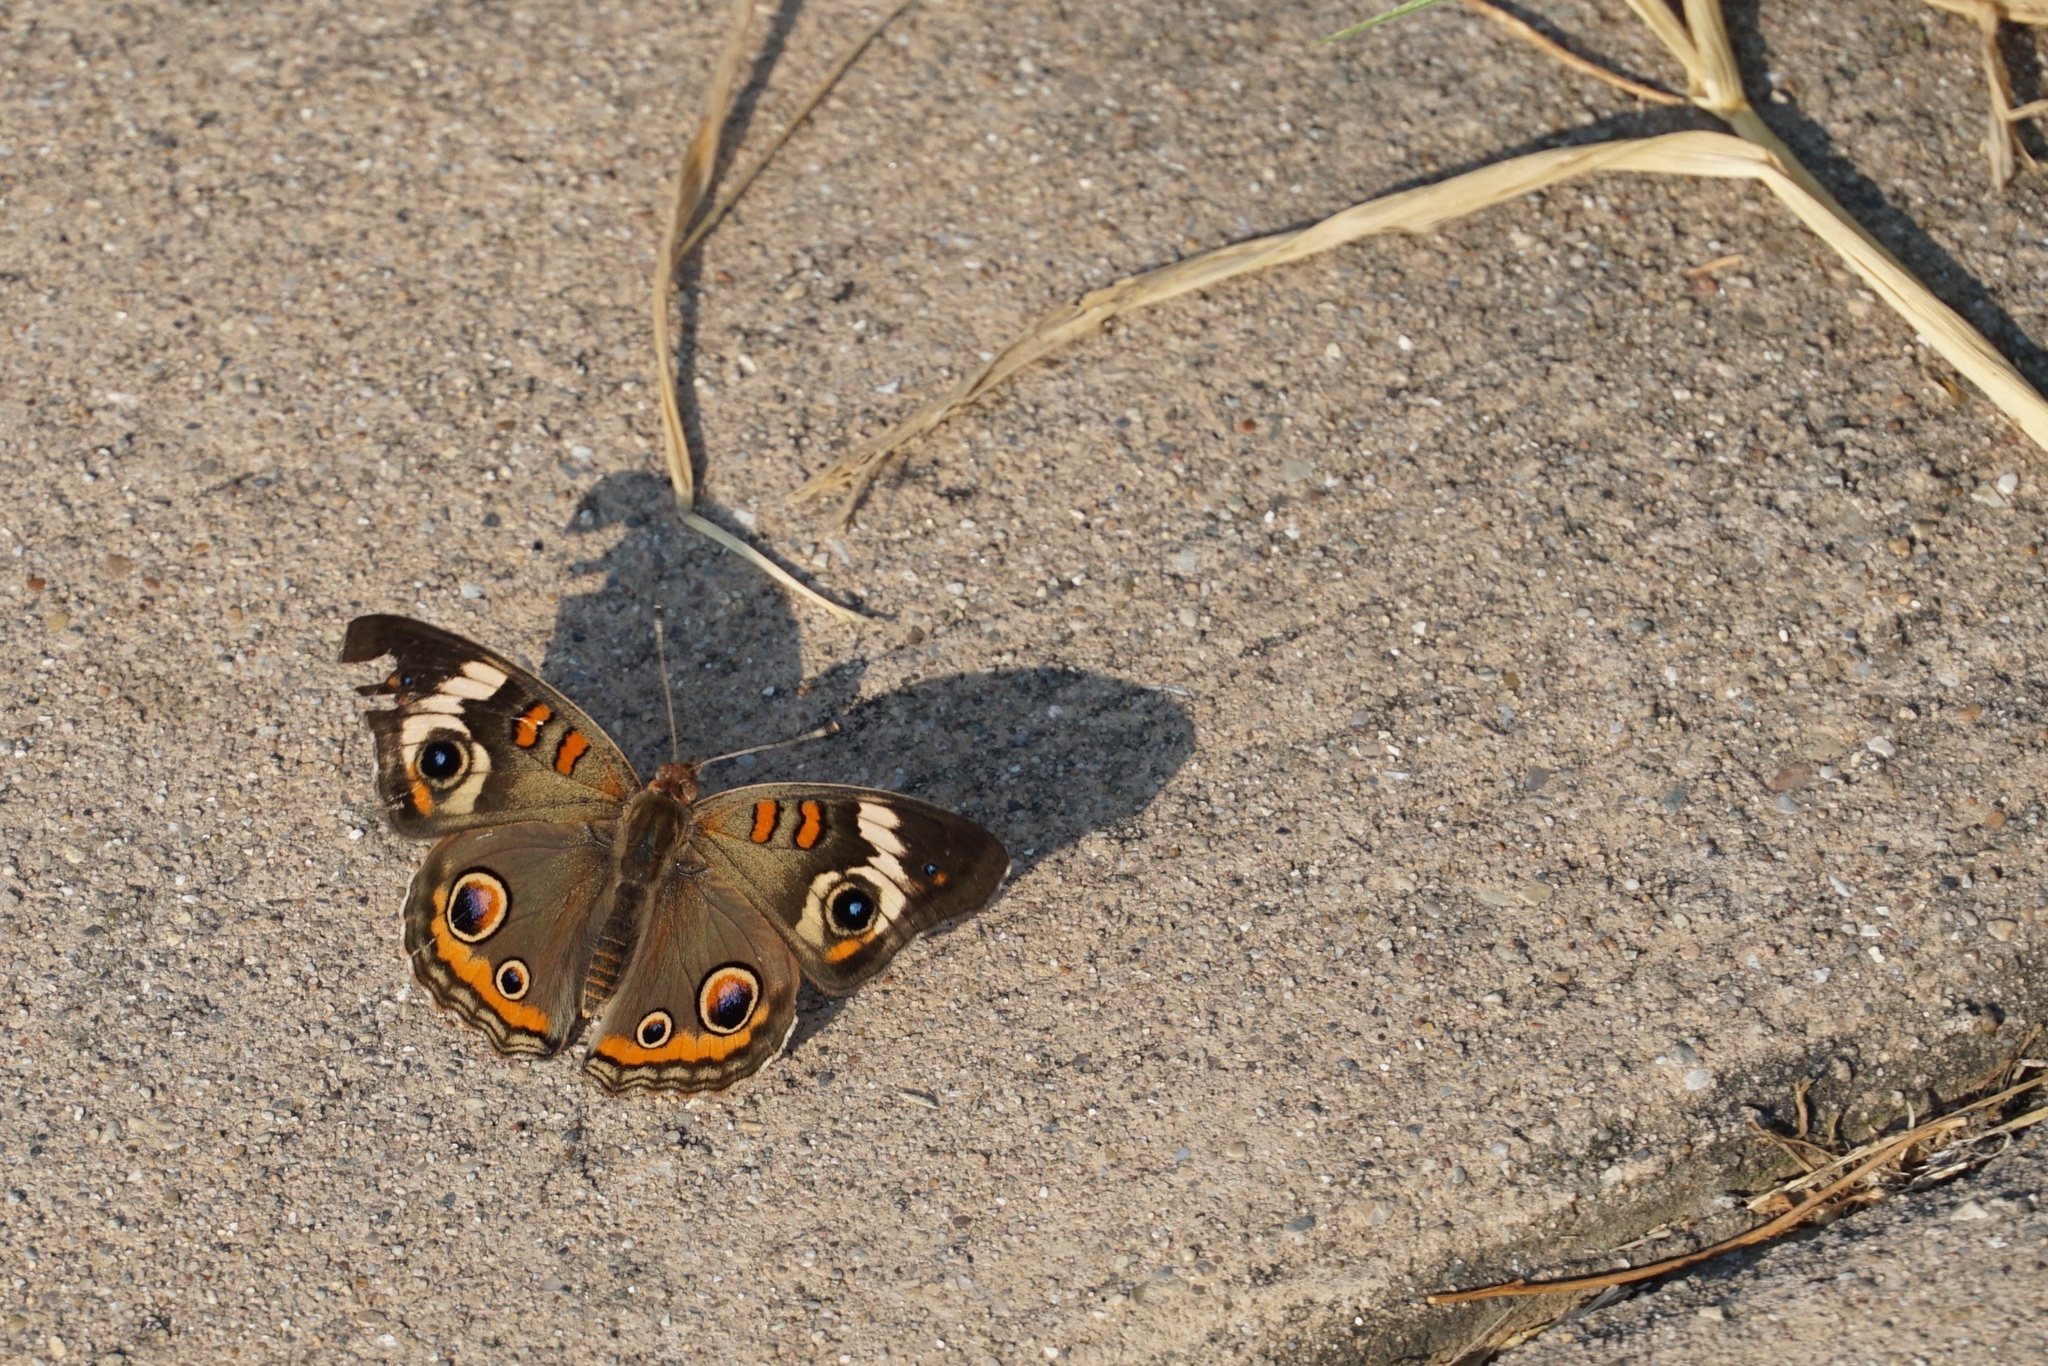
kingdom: Animalia
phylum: Arthropoda
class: Insecta
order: Lepidoptera
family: Nymphalidae
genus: Junonia
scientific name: Junonia coenia
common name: Common buckeye
